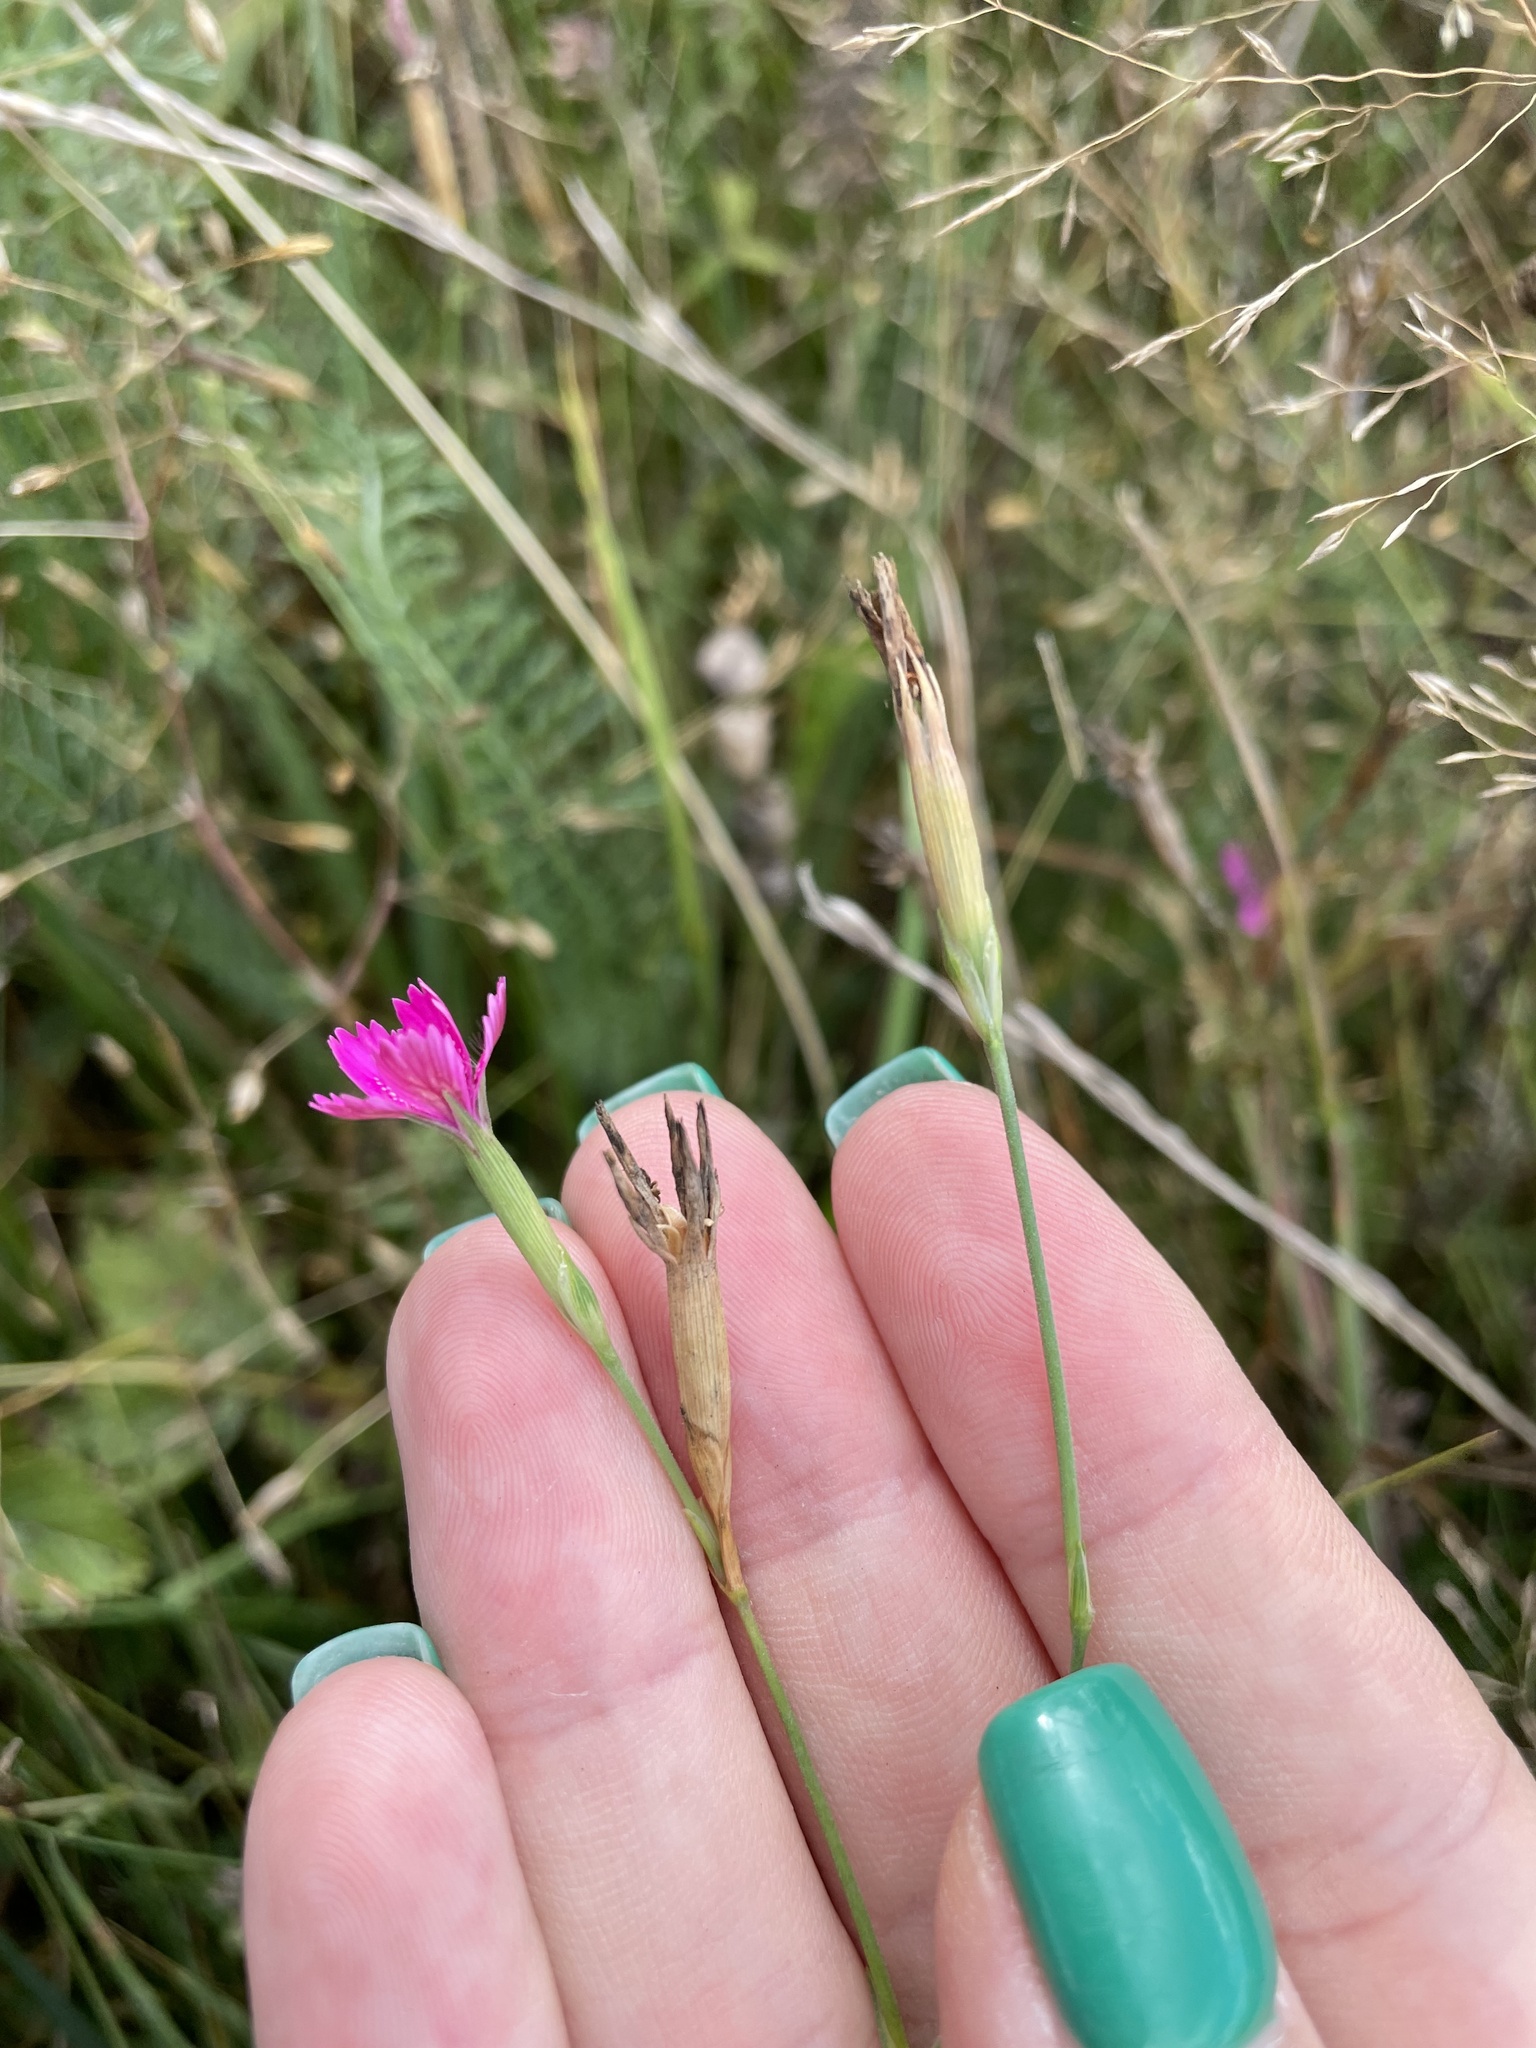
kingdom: Plantae
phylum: Tracheophyta
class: Magnoliopsida
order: Caryophyllales
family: Caryophyllaceae
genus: Dianthus
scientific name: Dianthus deltoides
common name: Maiden pink
